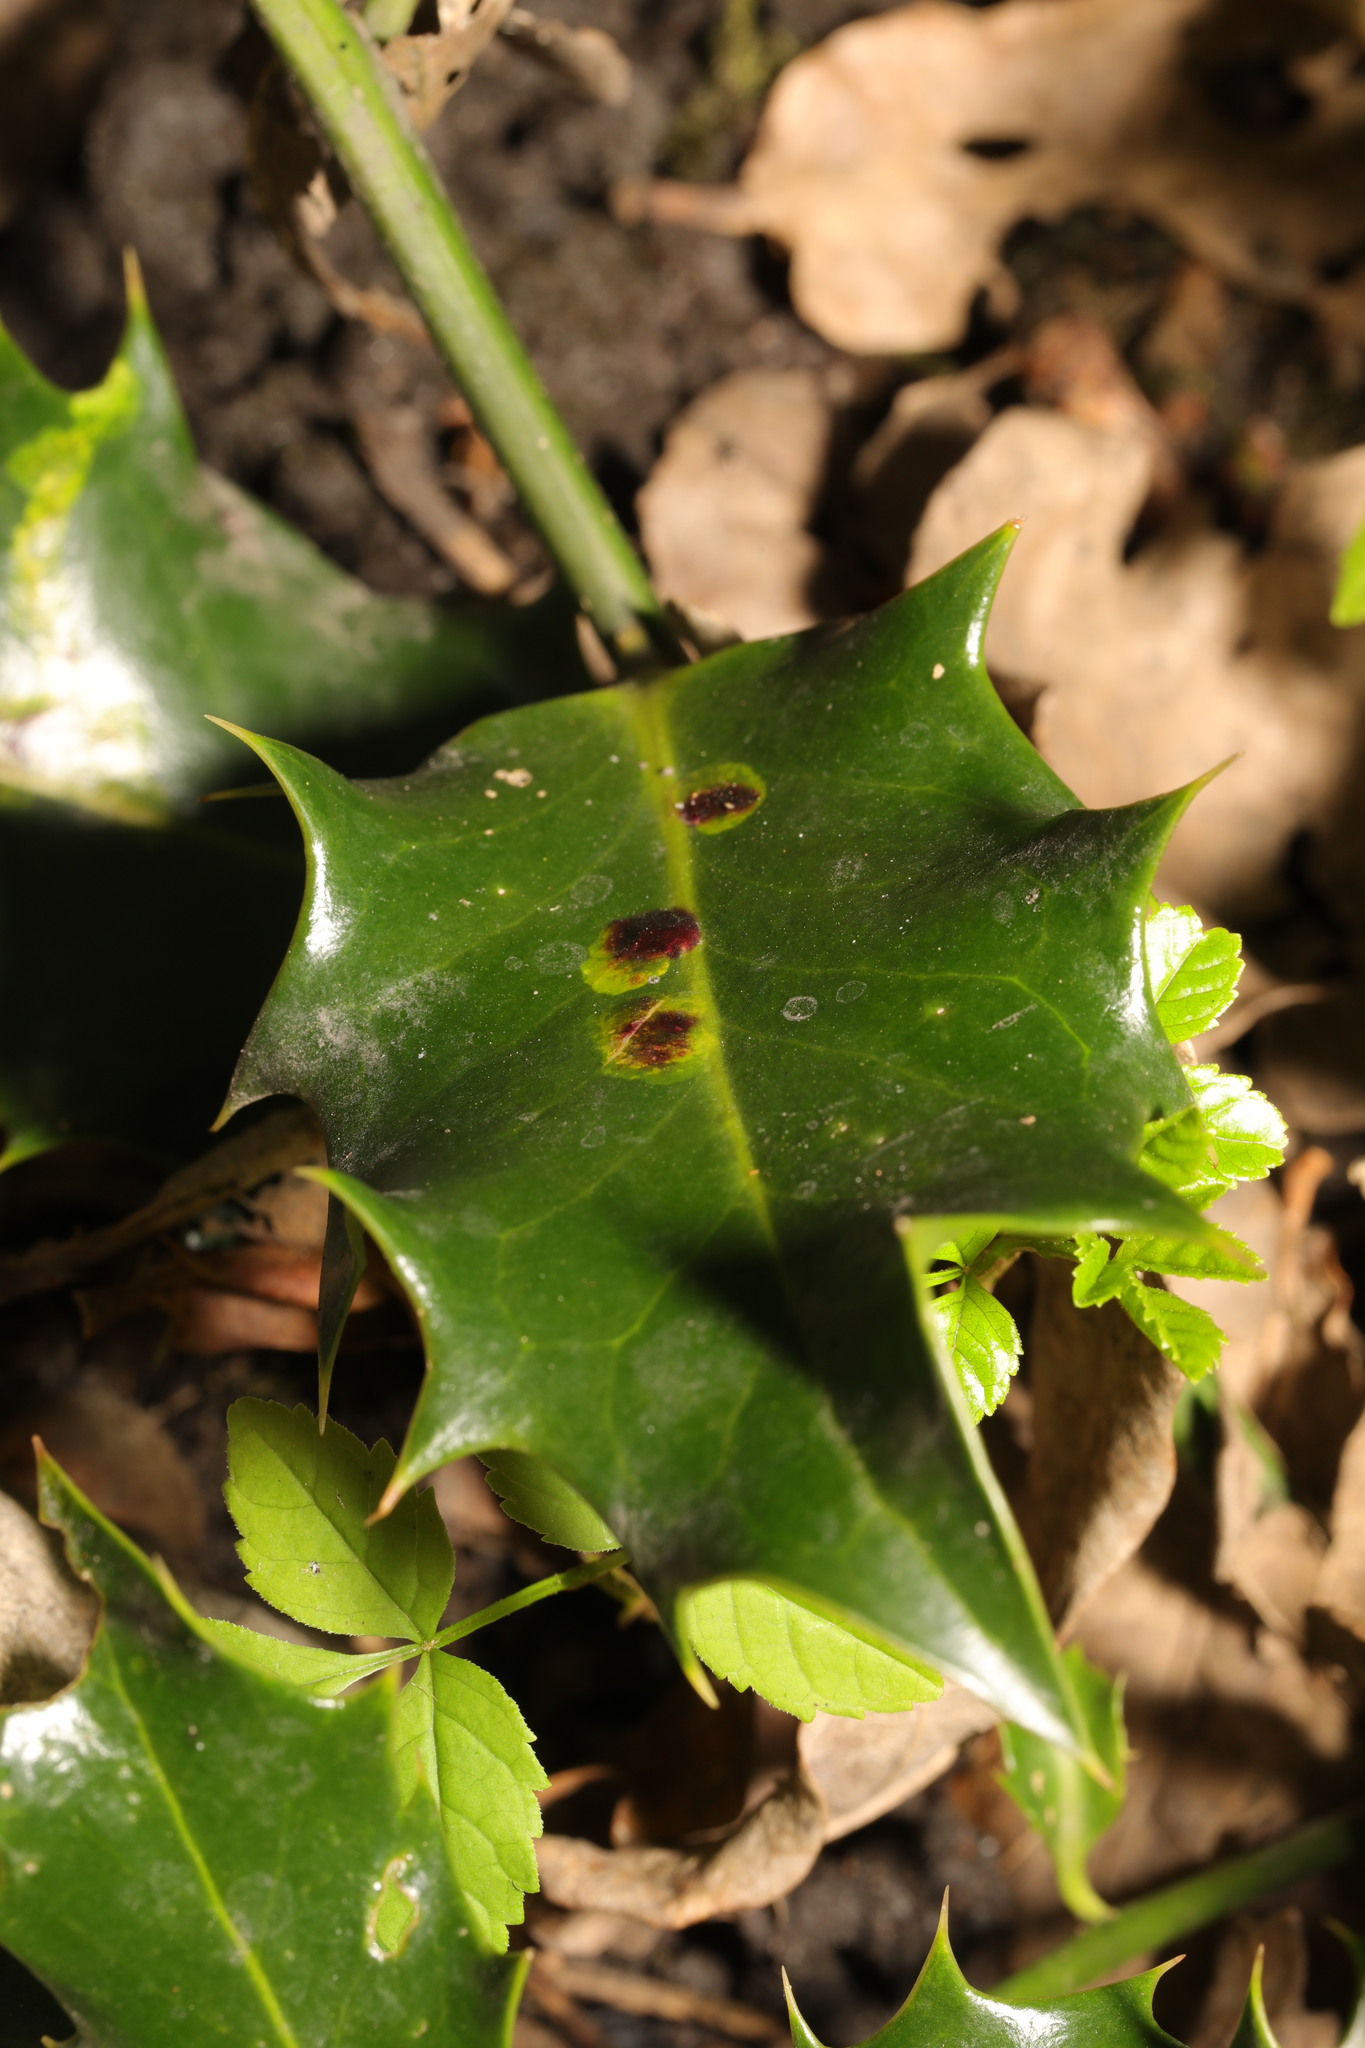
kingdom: Animalia
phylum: Arthropoda
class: Insecta
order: Diptera
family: Agromyzidae
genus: Phytomyza
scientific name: Phytomyza ilicis
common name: Holly leafminer
